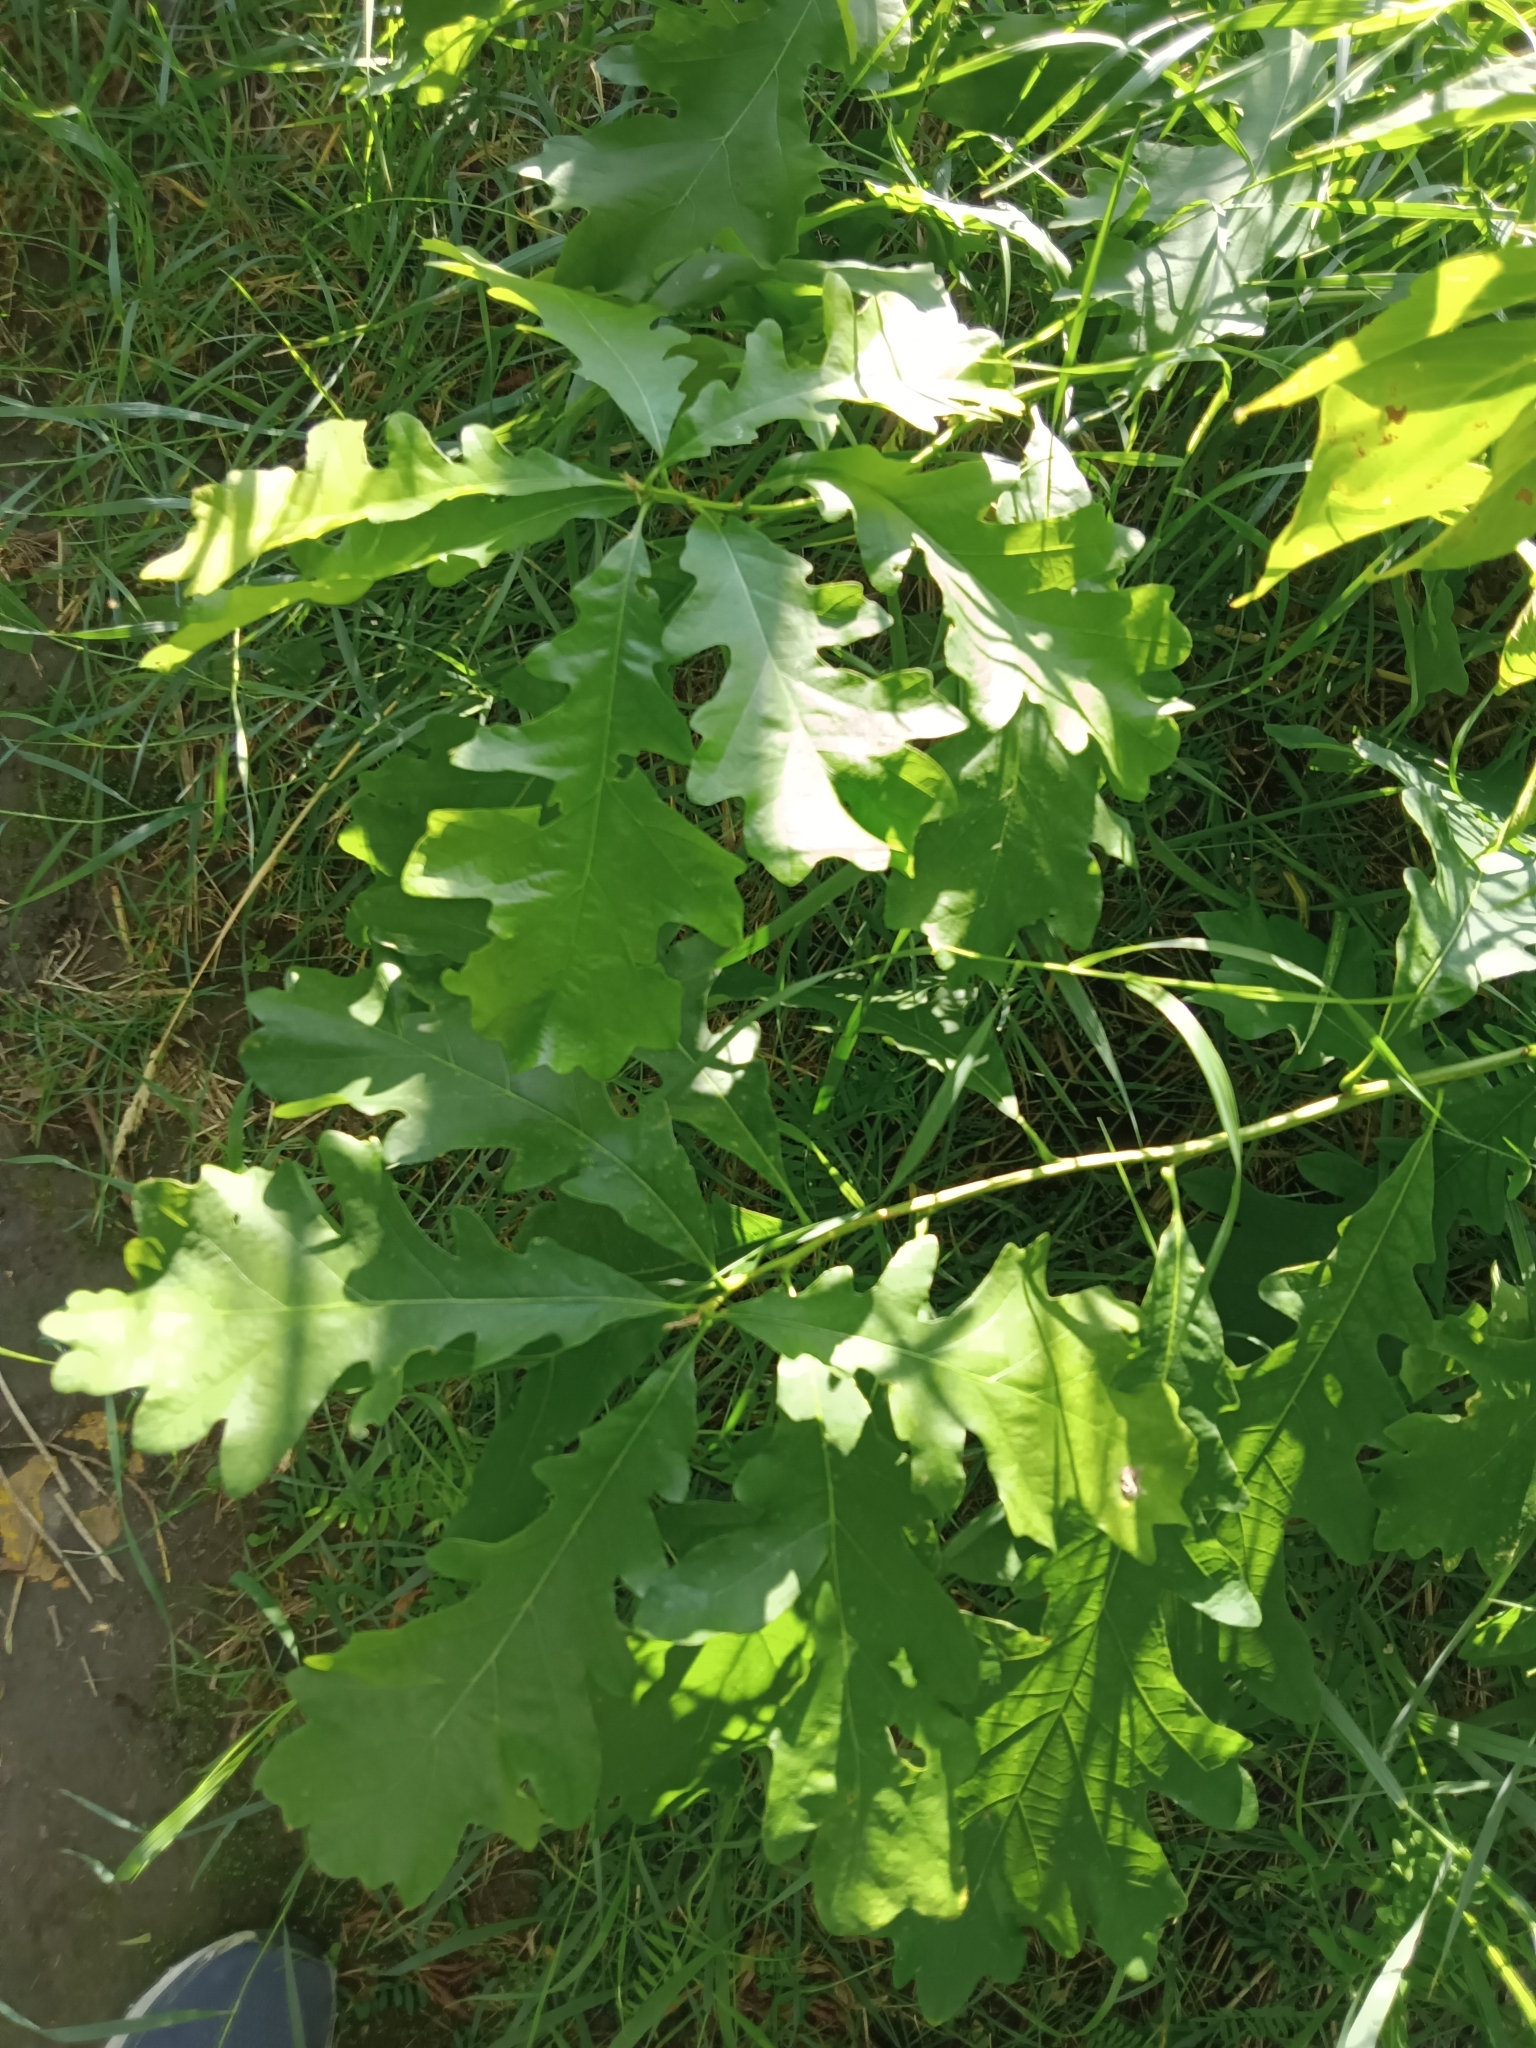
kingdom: Plantae
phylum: Tracheophyta
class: Magnoliopsida
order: Fagales
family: Fagaceae
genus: Quercus
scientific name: Quercus macrocarpa
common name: Bur oak
